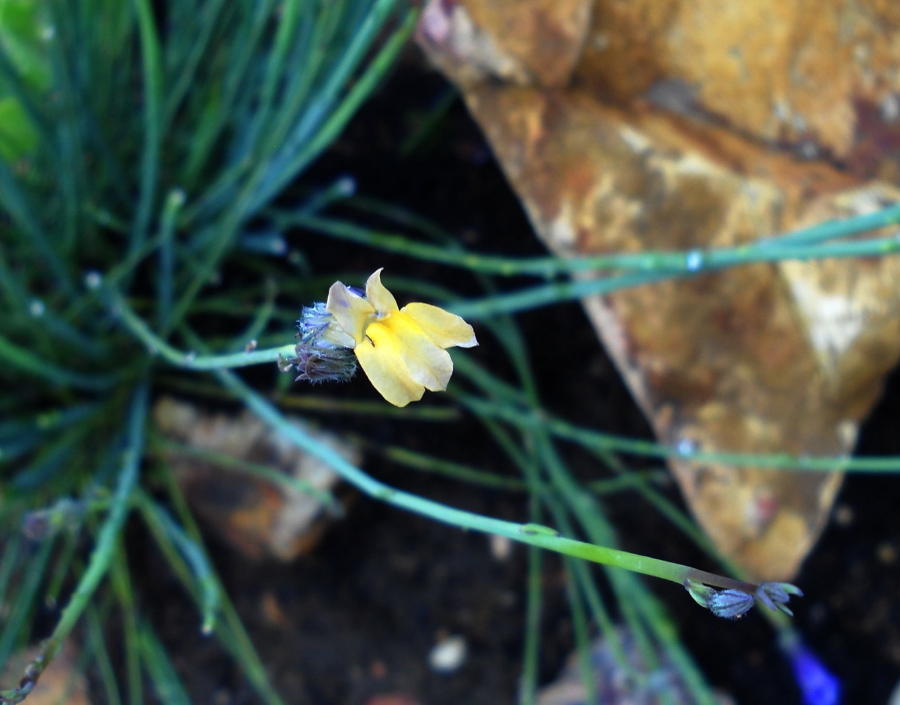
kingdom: Plantae
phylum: Tracheophyta
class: Magnoliopsida
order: Asterales
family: Campanulaceae
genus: Lobelia
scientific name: Lobelia linearis
